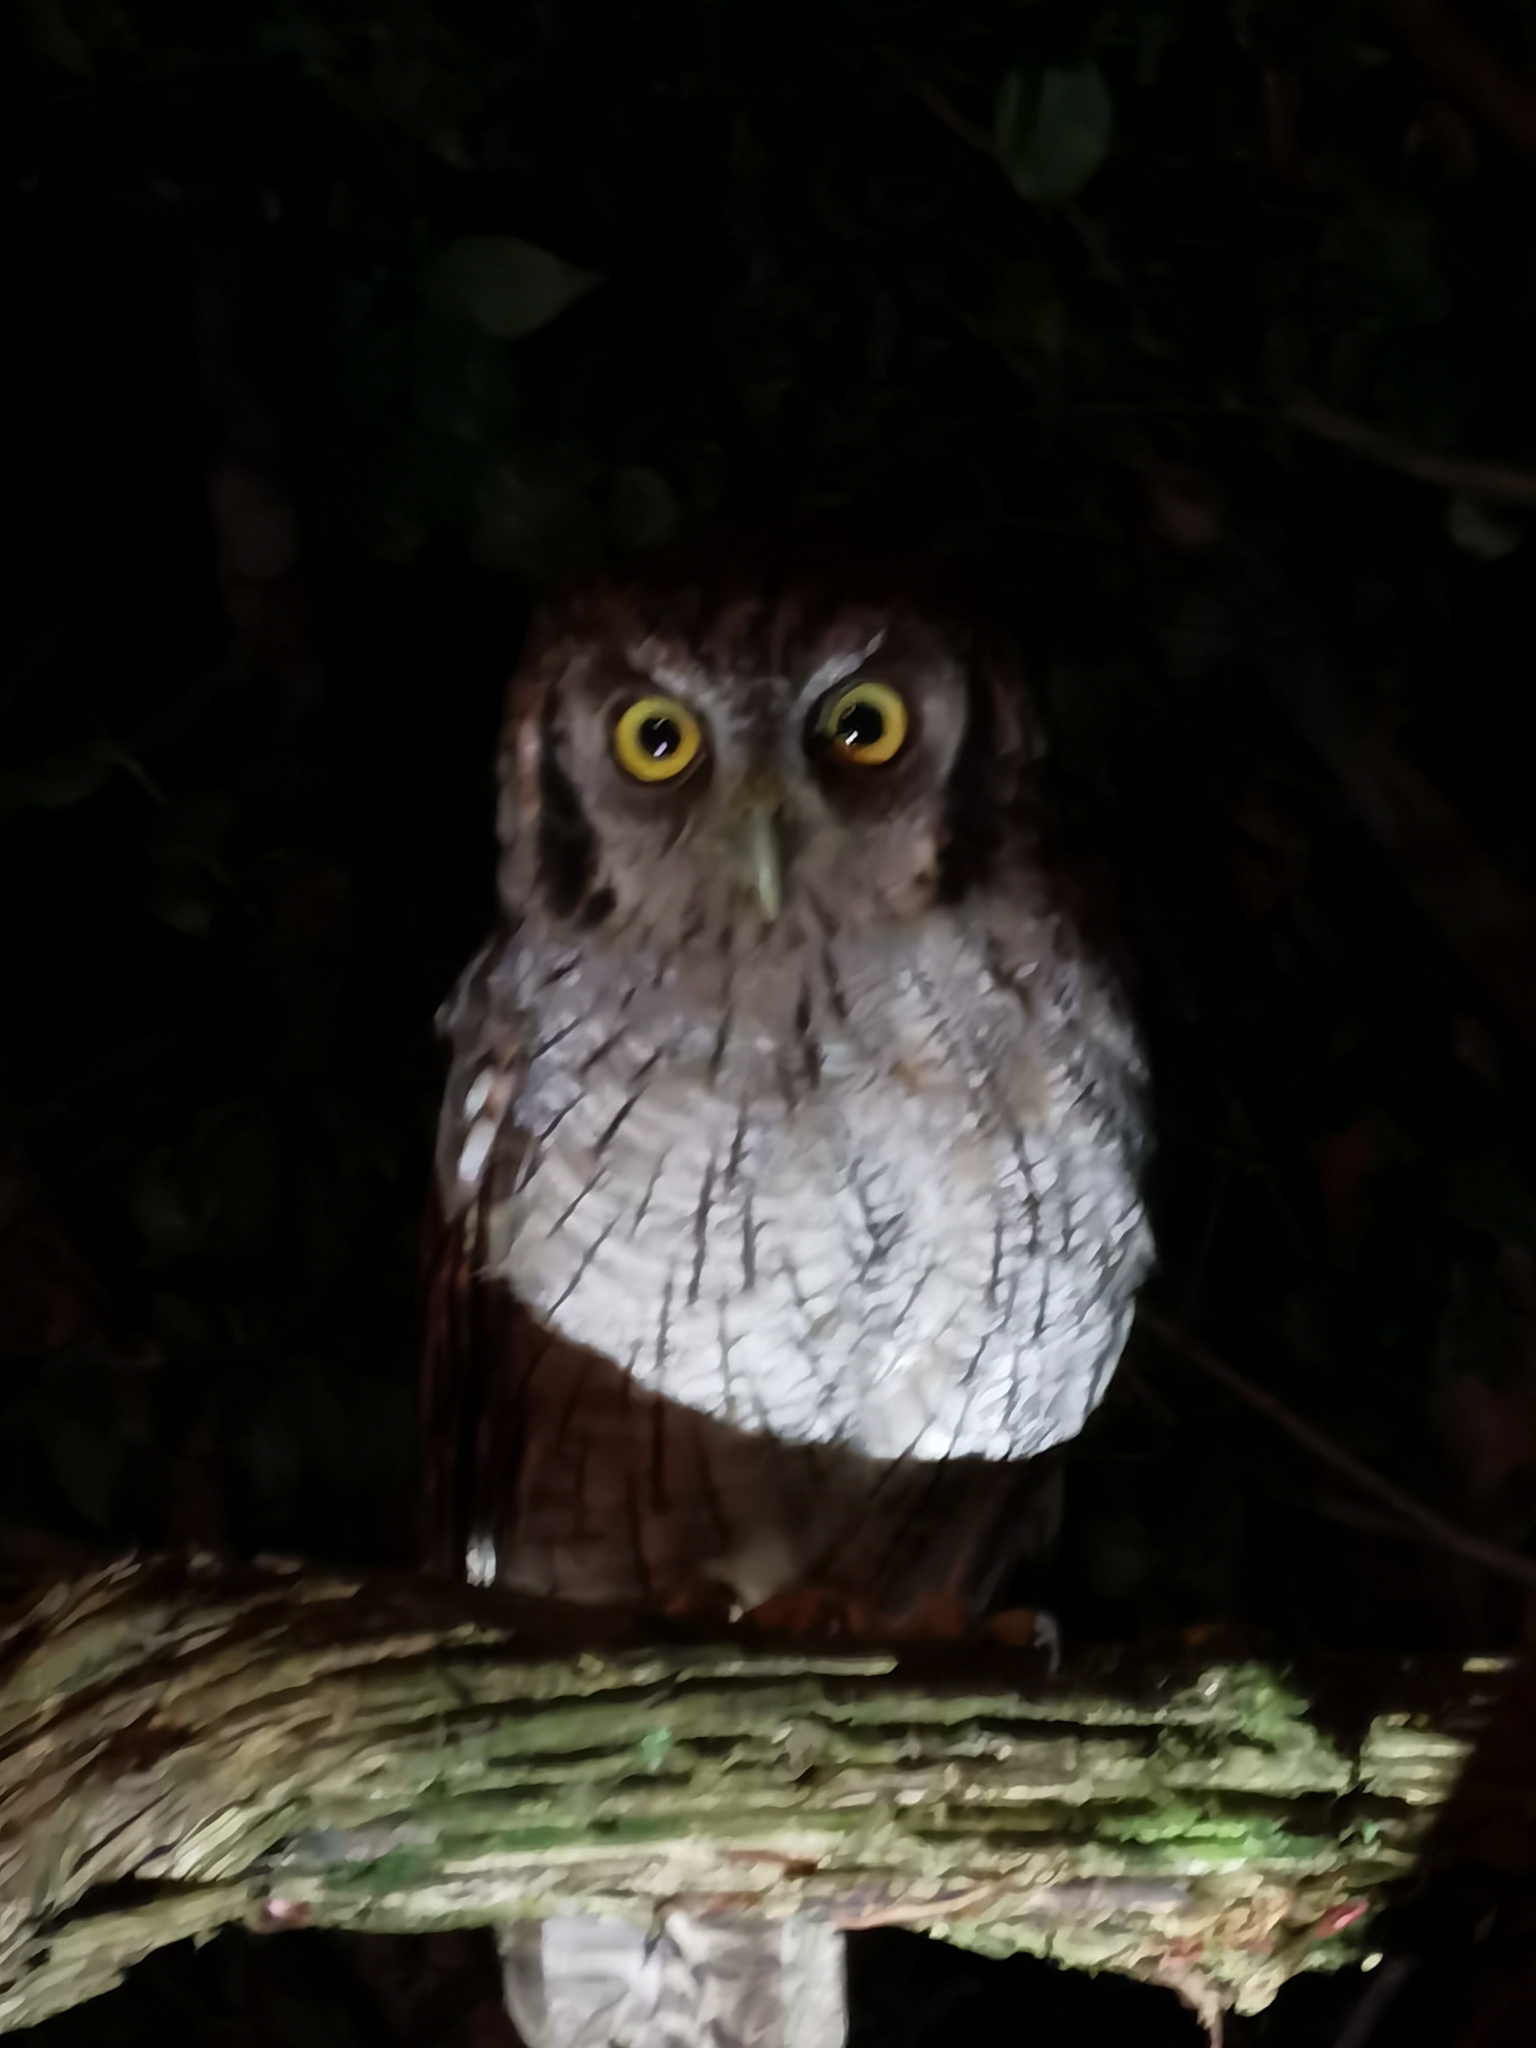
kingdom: Animalia
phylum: Chordata
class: Aves
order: Strigiformes
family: Strigidae
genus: Megascops
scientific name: Megascops choliba
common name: Tropical screech-owl
